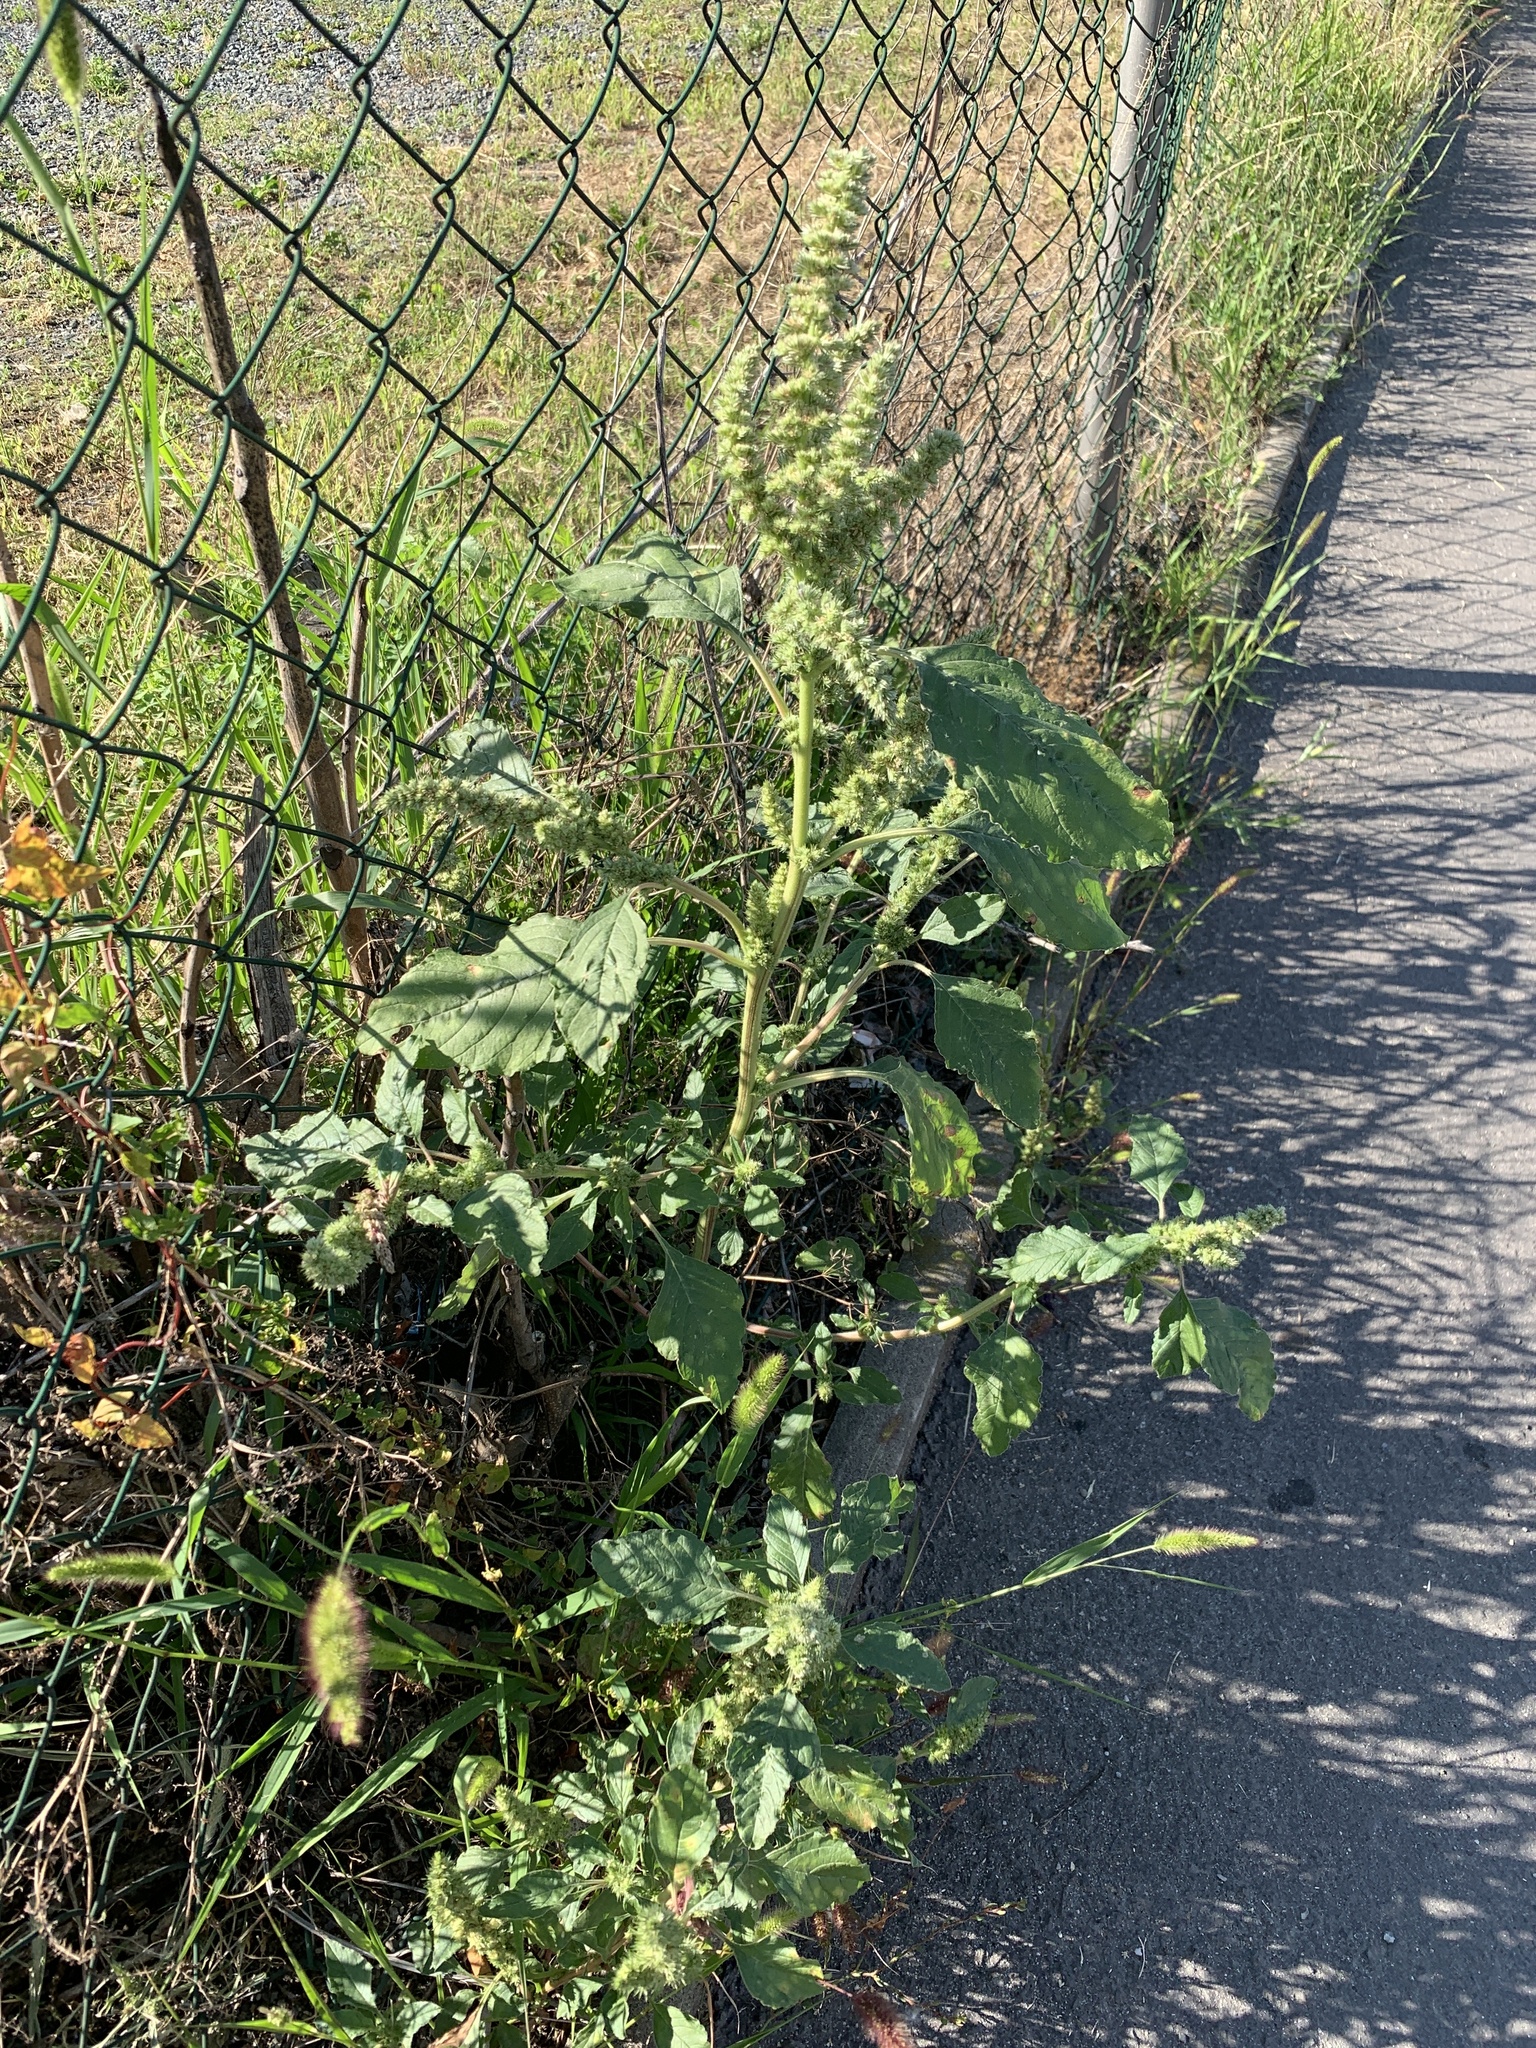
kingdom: Plantae
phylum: Tracheophyta
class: Magnoliopsida
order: Caryophyllales
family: Amaranthaceae
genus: Amaranthus
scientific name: Amaranthus retroflexus
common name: Redroot amaranth
